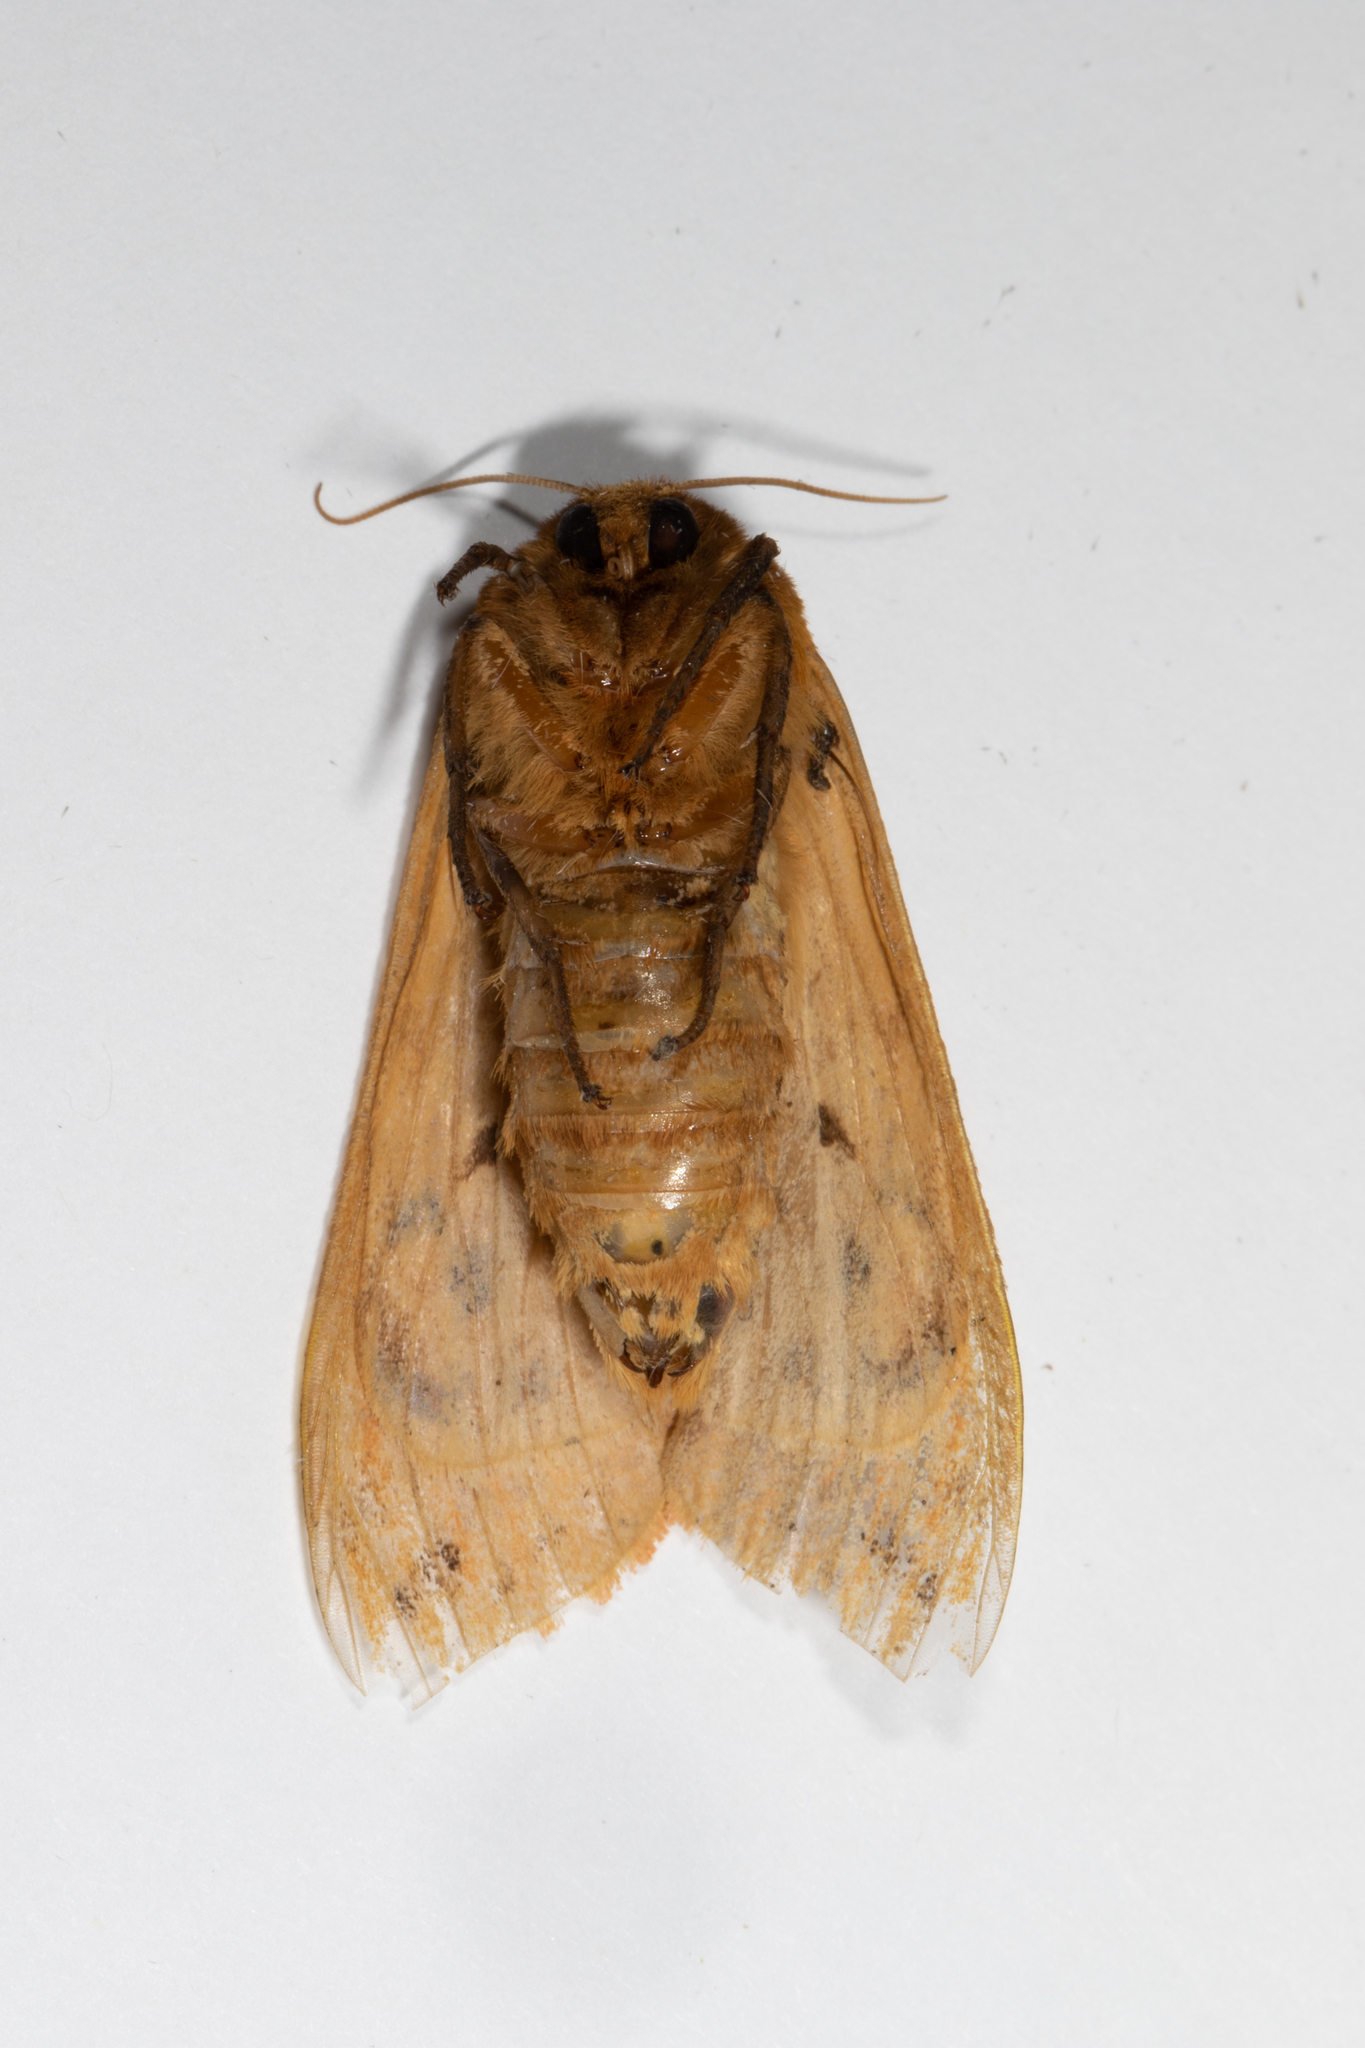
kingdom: Animalia
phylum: Arthropoda
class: Insecta
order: Lepidoptera
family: Erebidae
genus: Pyrrharctia
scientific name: Pyrrharctia isabella
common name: Isabella tiger moth
